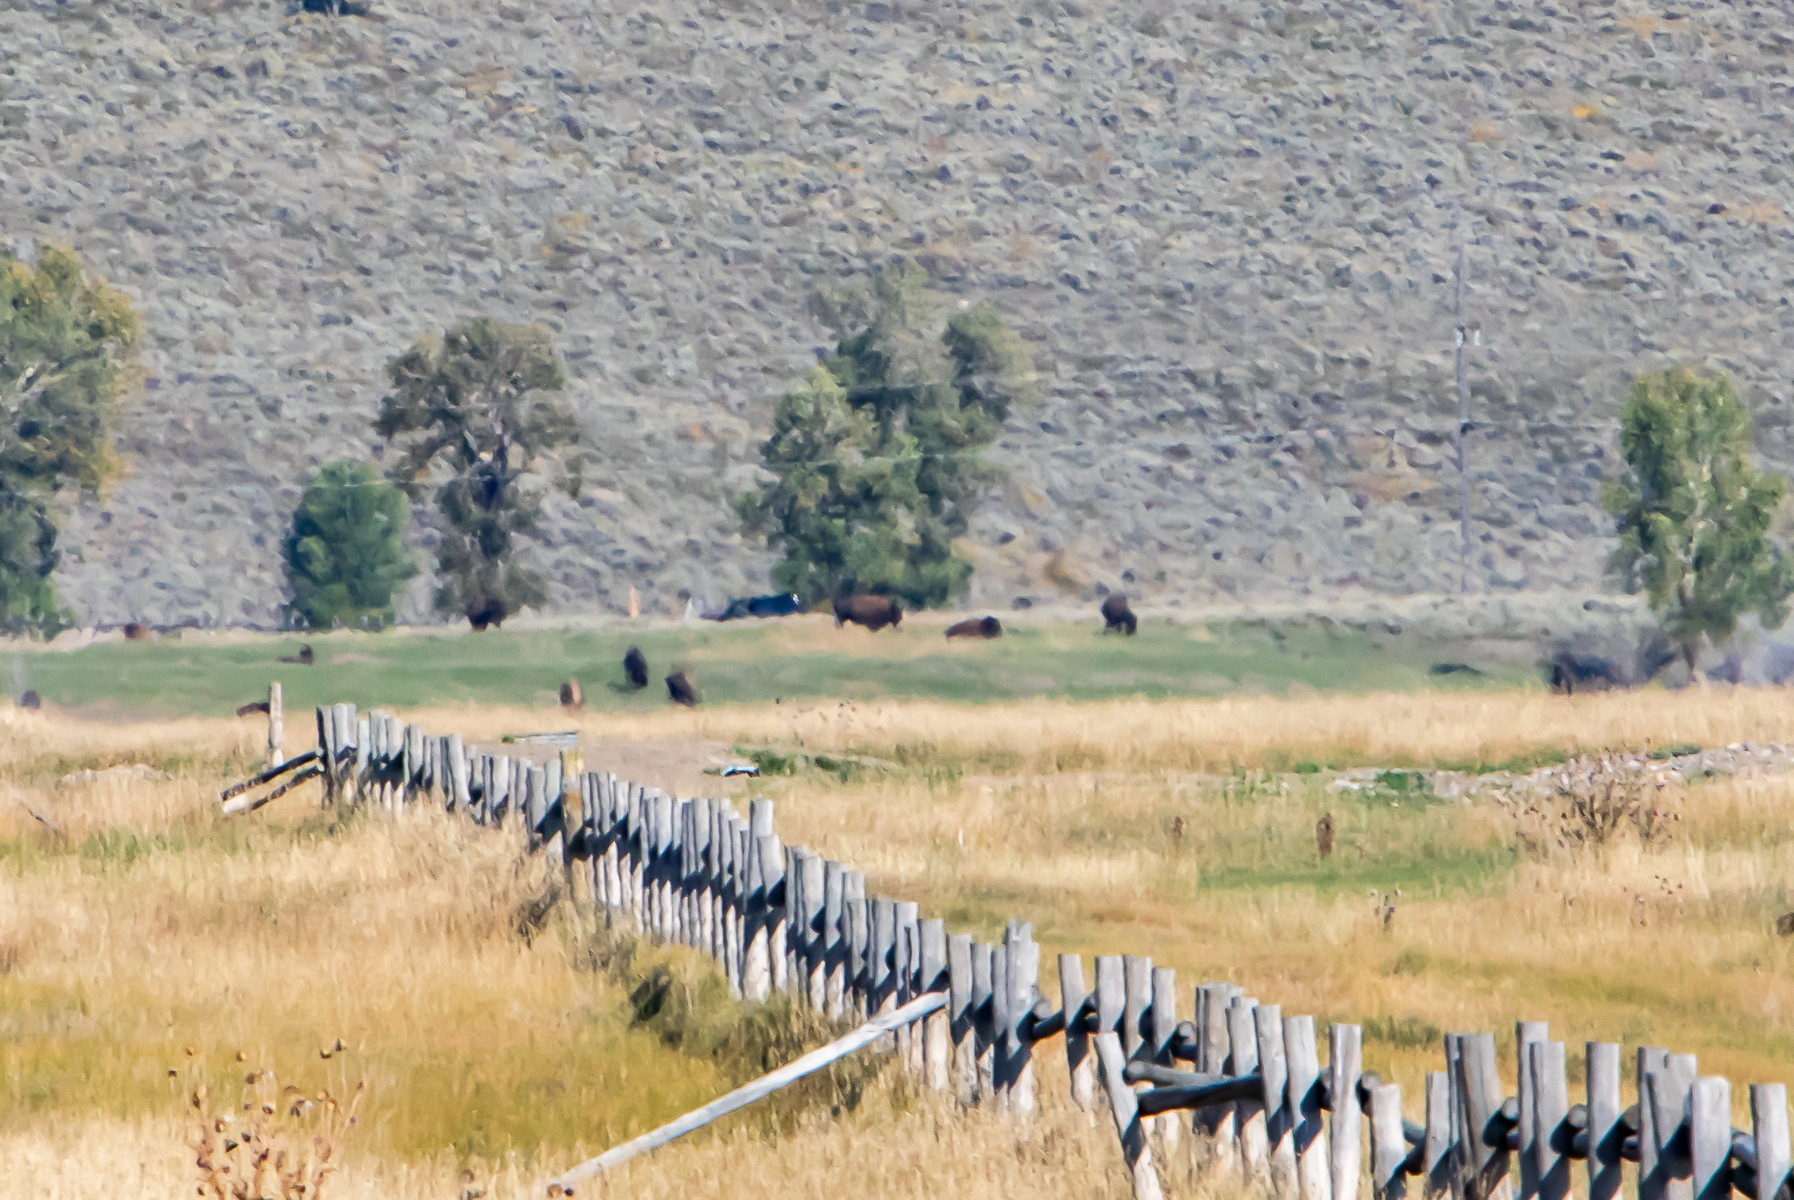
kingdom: Animalia
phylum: Chordata
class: Mammalia
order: Artiodactyla
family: Bovidae
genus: Bison
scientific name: Bison bison
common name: American bison
